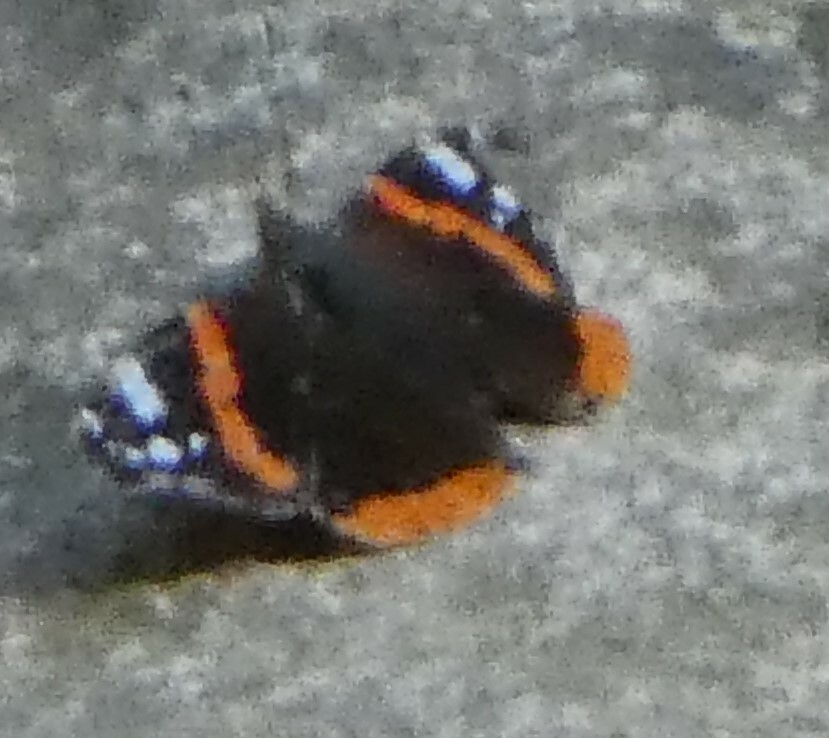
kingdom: Animalia
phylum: Arthropoda
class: Insecta
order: Lepidoptera
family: Nymphalidae
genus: Vanessa
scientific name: Vanessa atalanta
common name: Red admiral
